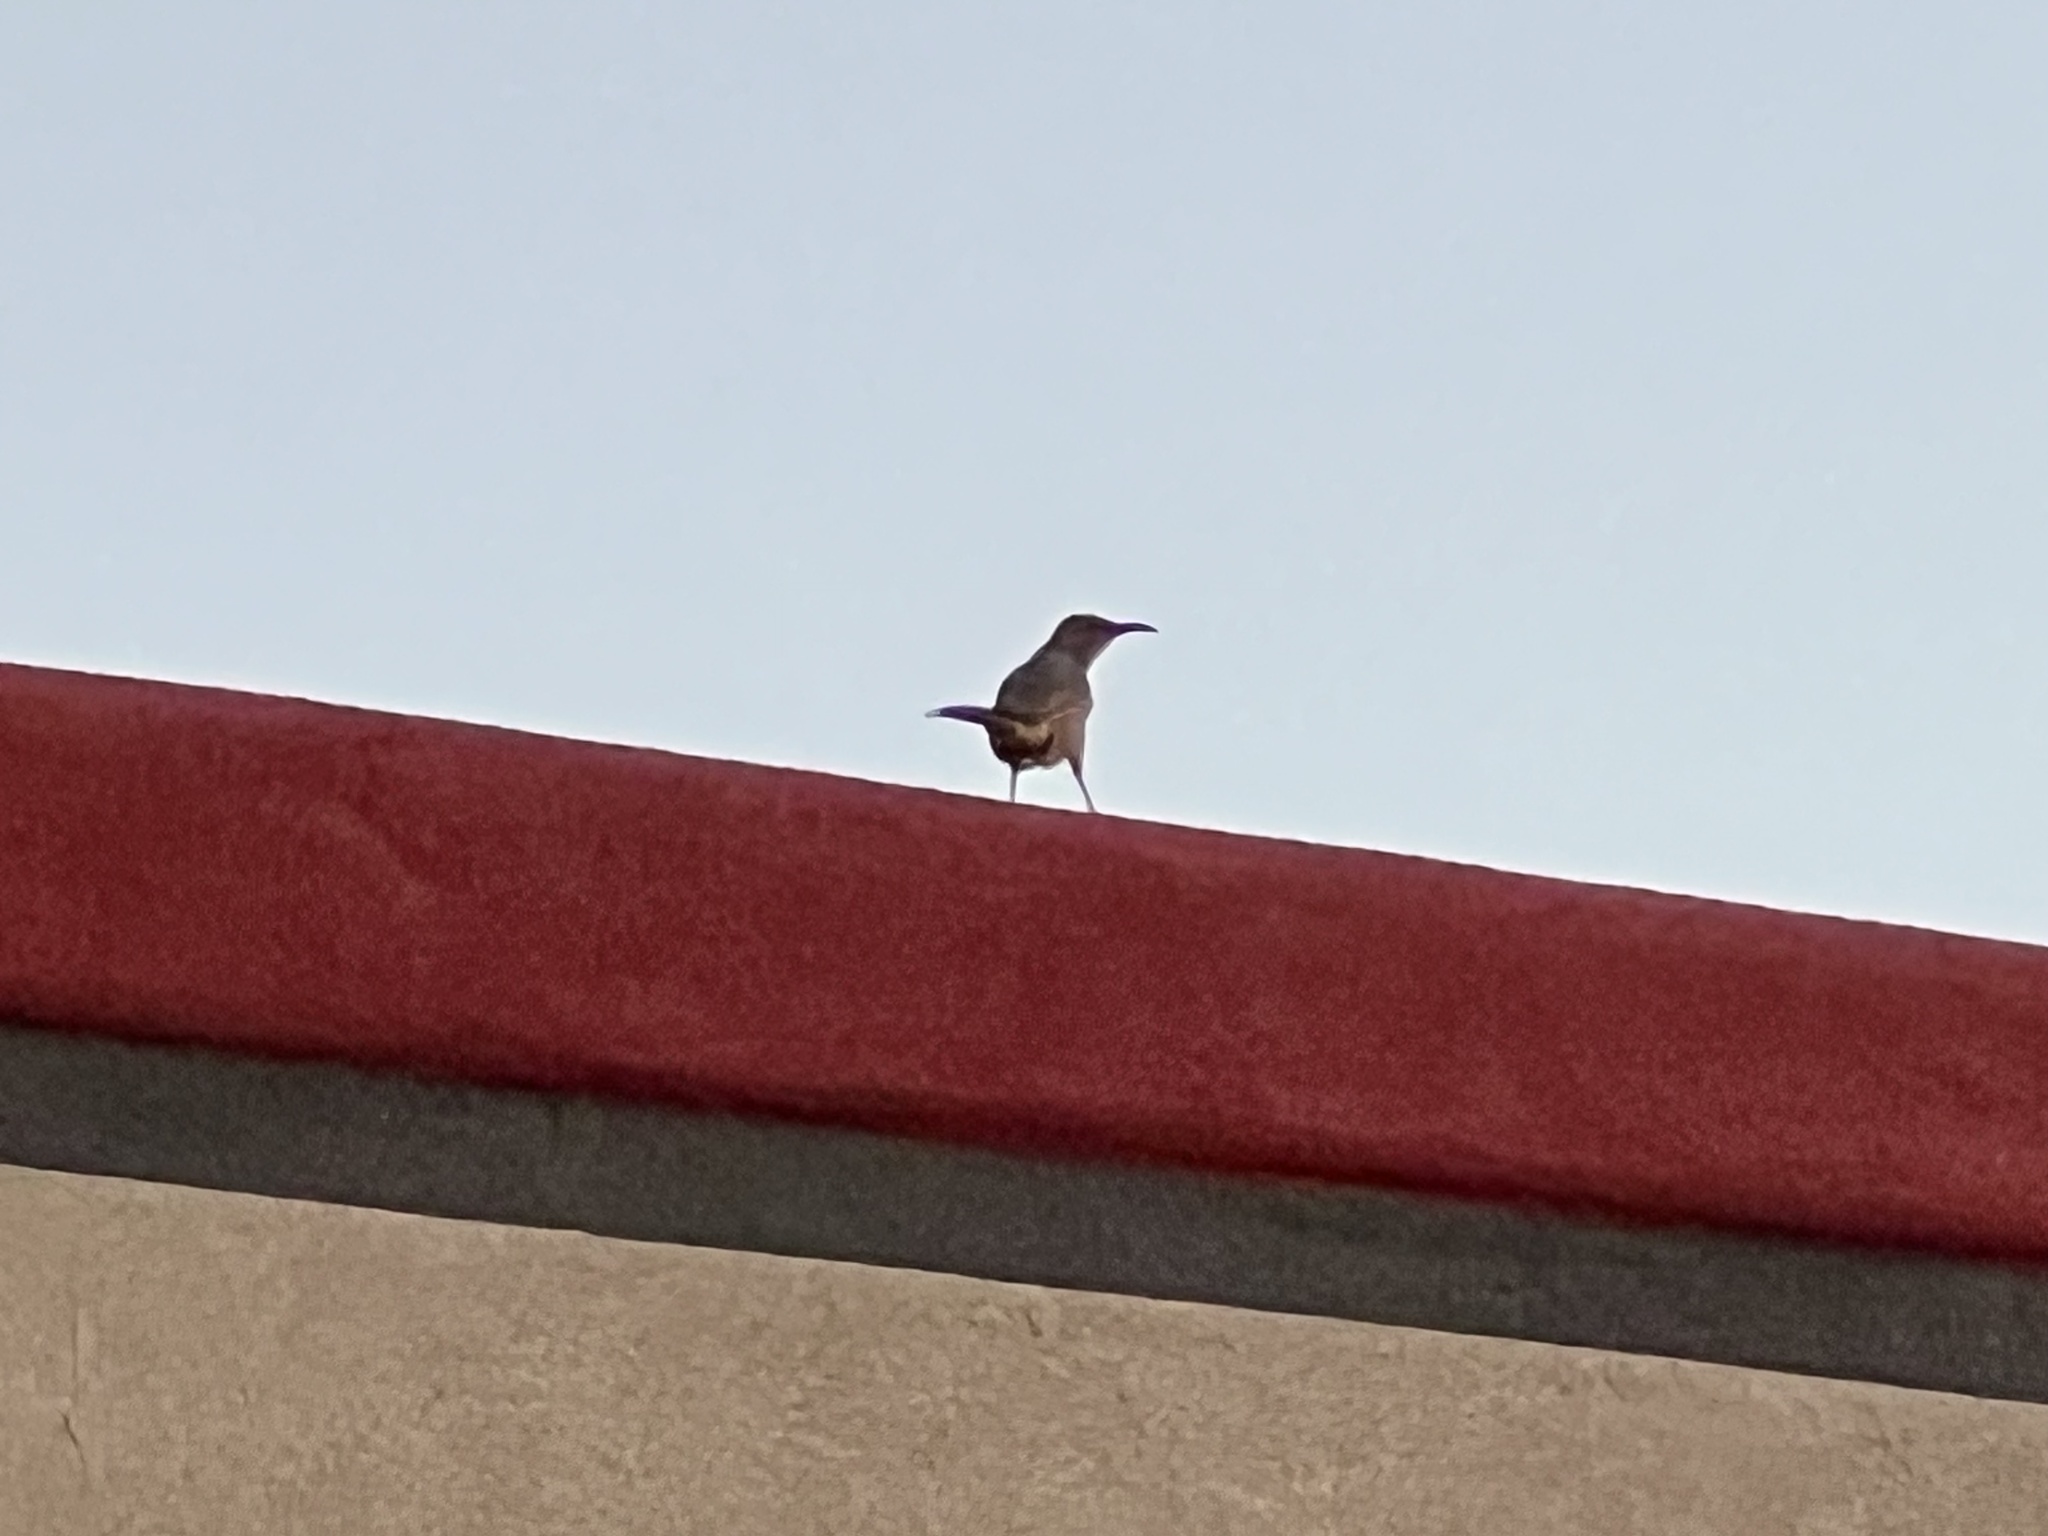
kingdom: Animalia
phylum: Chordata
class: Aves
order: Passeriformes
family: Mimidae
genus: Toxostoma
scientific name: Toxostoma curvirostre
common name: Curve-billed thrasher
